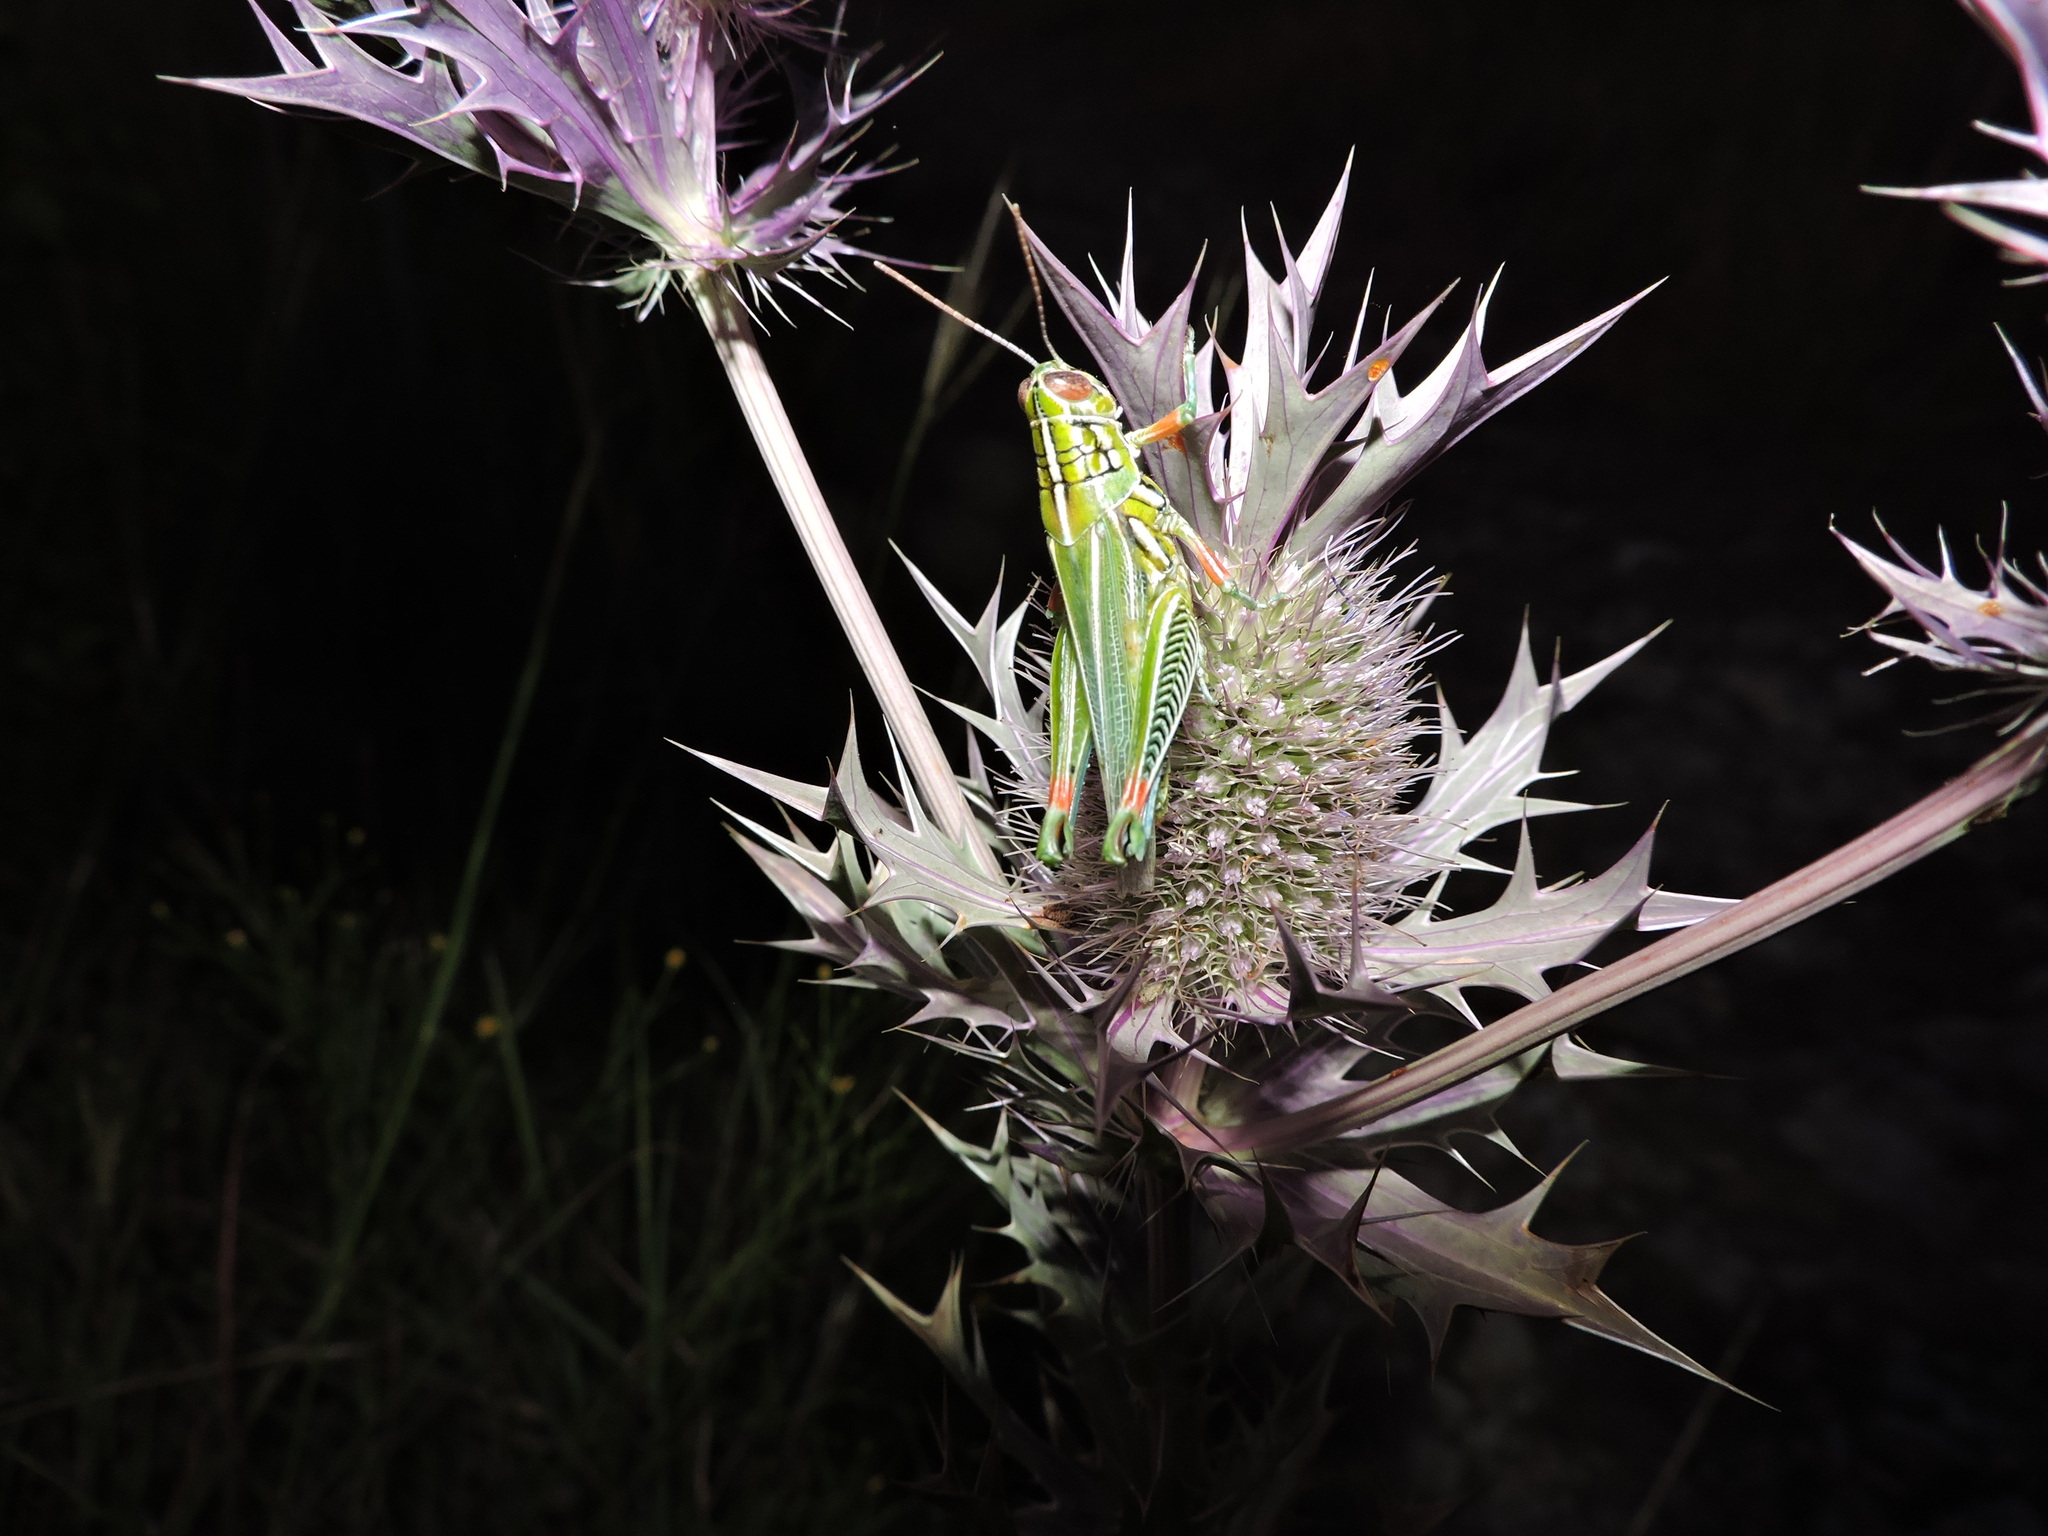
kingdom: Animalia
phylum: Arthropoda
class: Insecta
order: Orthoptera
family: Acrididae
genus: Hesperotettix
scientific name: Hesperotettix viridis
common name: Meadow purple-striped grasshopper
